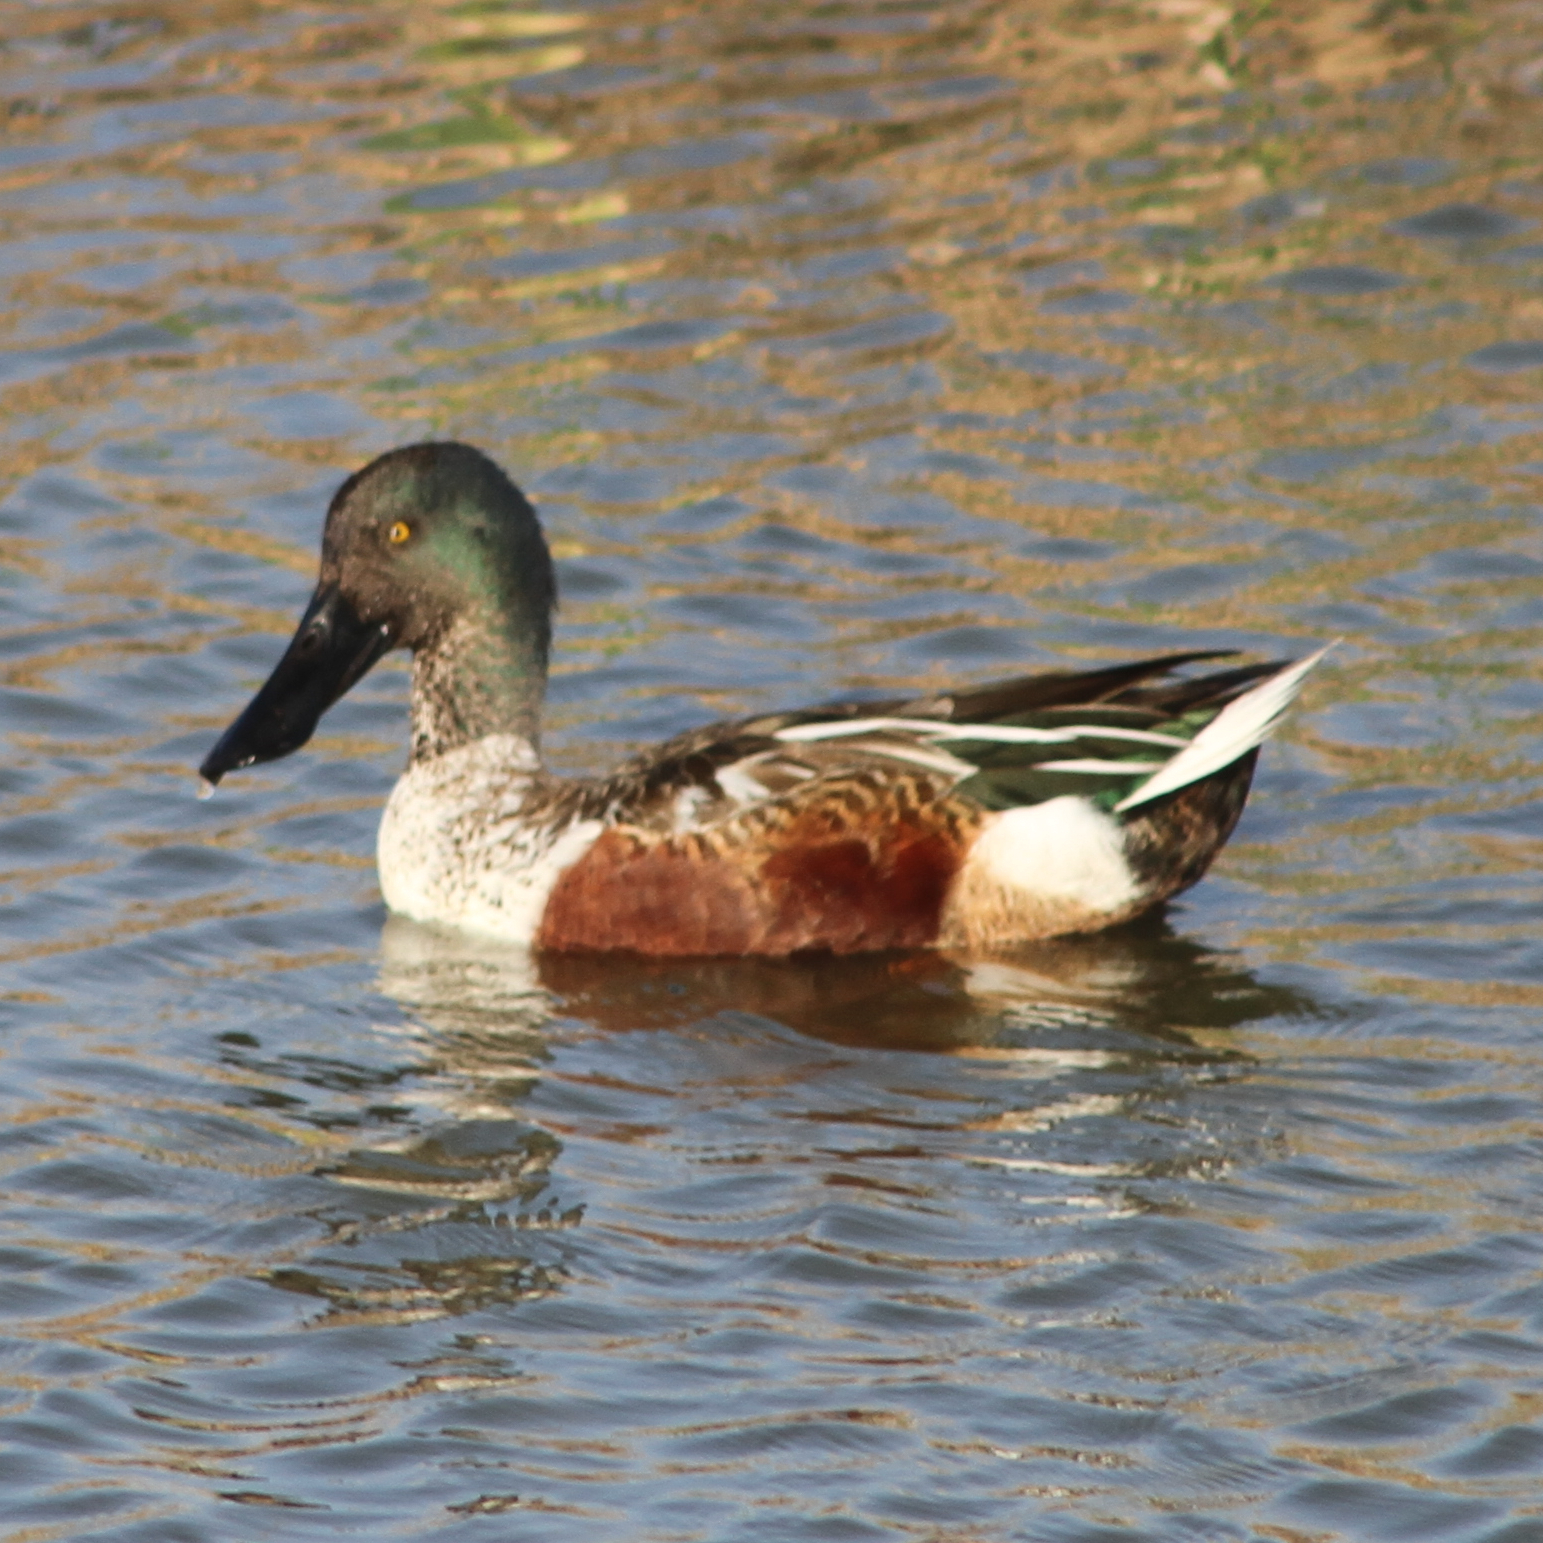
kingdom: Animalia
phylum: Chordata
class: Aves
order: Anseriformes
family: Anatidae
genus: Spatula
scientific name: Spatula clypeata
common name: Northern shoveler
